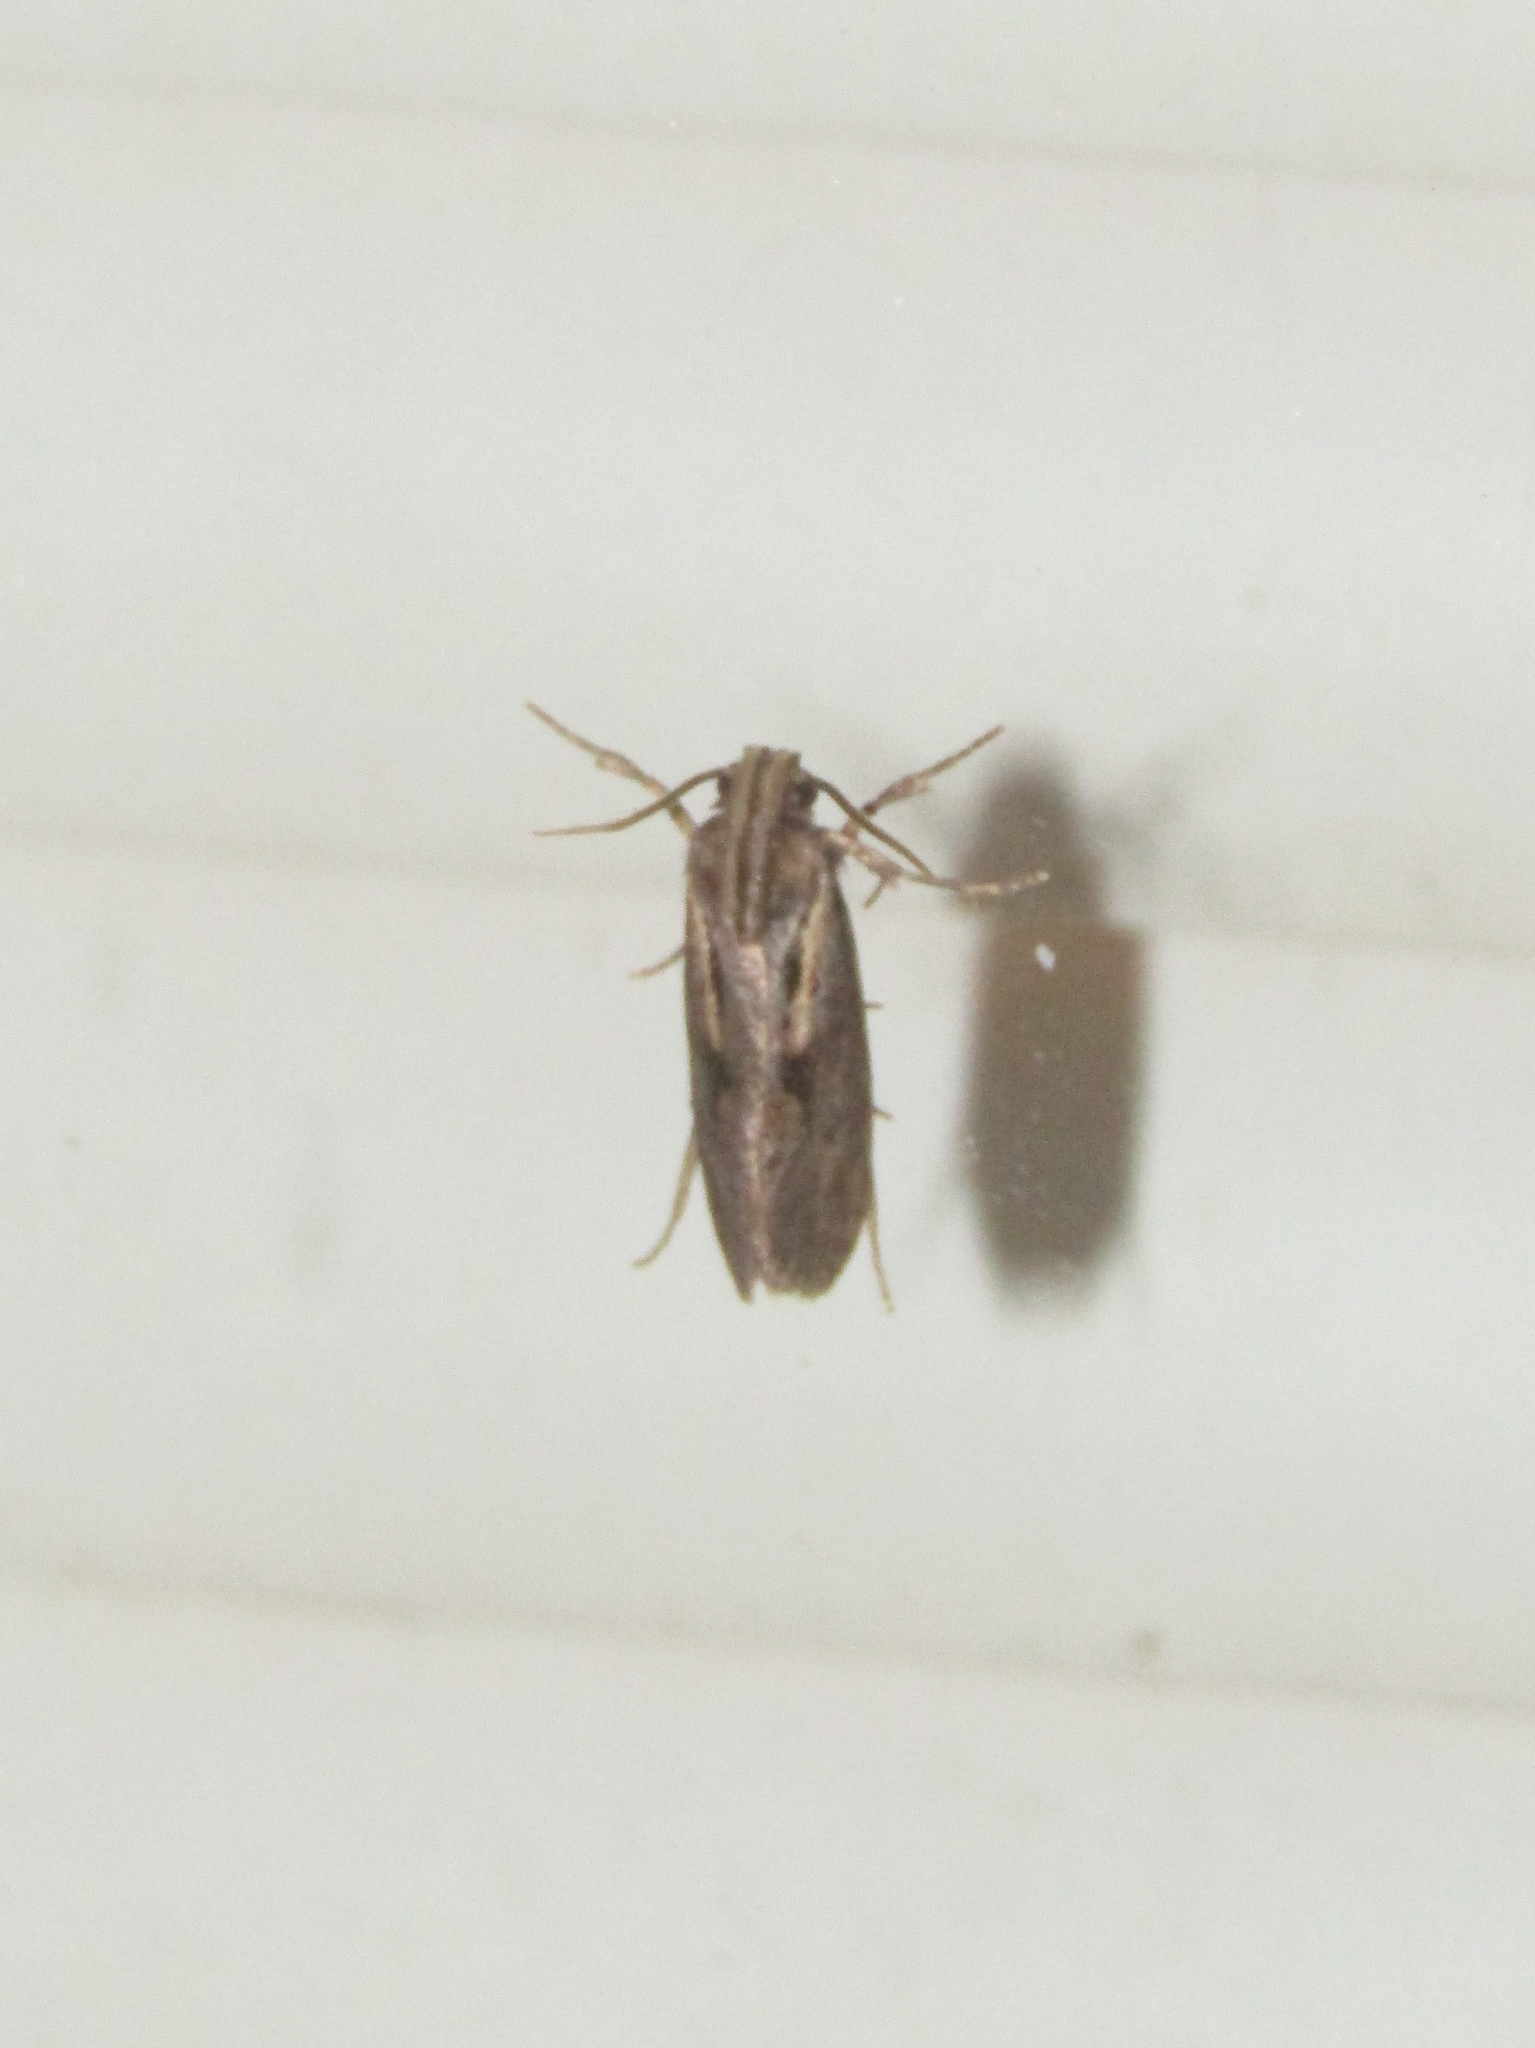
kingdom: Animalia
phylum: Arthropoda
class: Insecta
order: Lepidoptera
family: Tineidae
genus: Acrolophus
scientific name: Acrolophus popeanella
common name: Clemens' grass tubeworm moth
